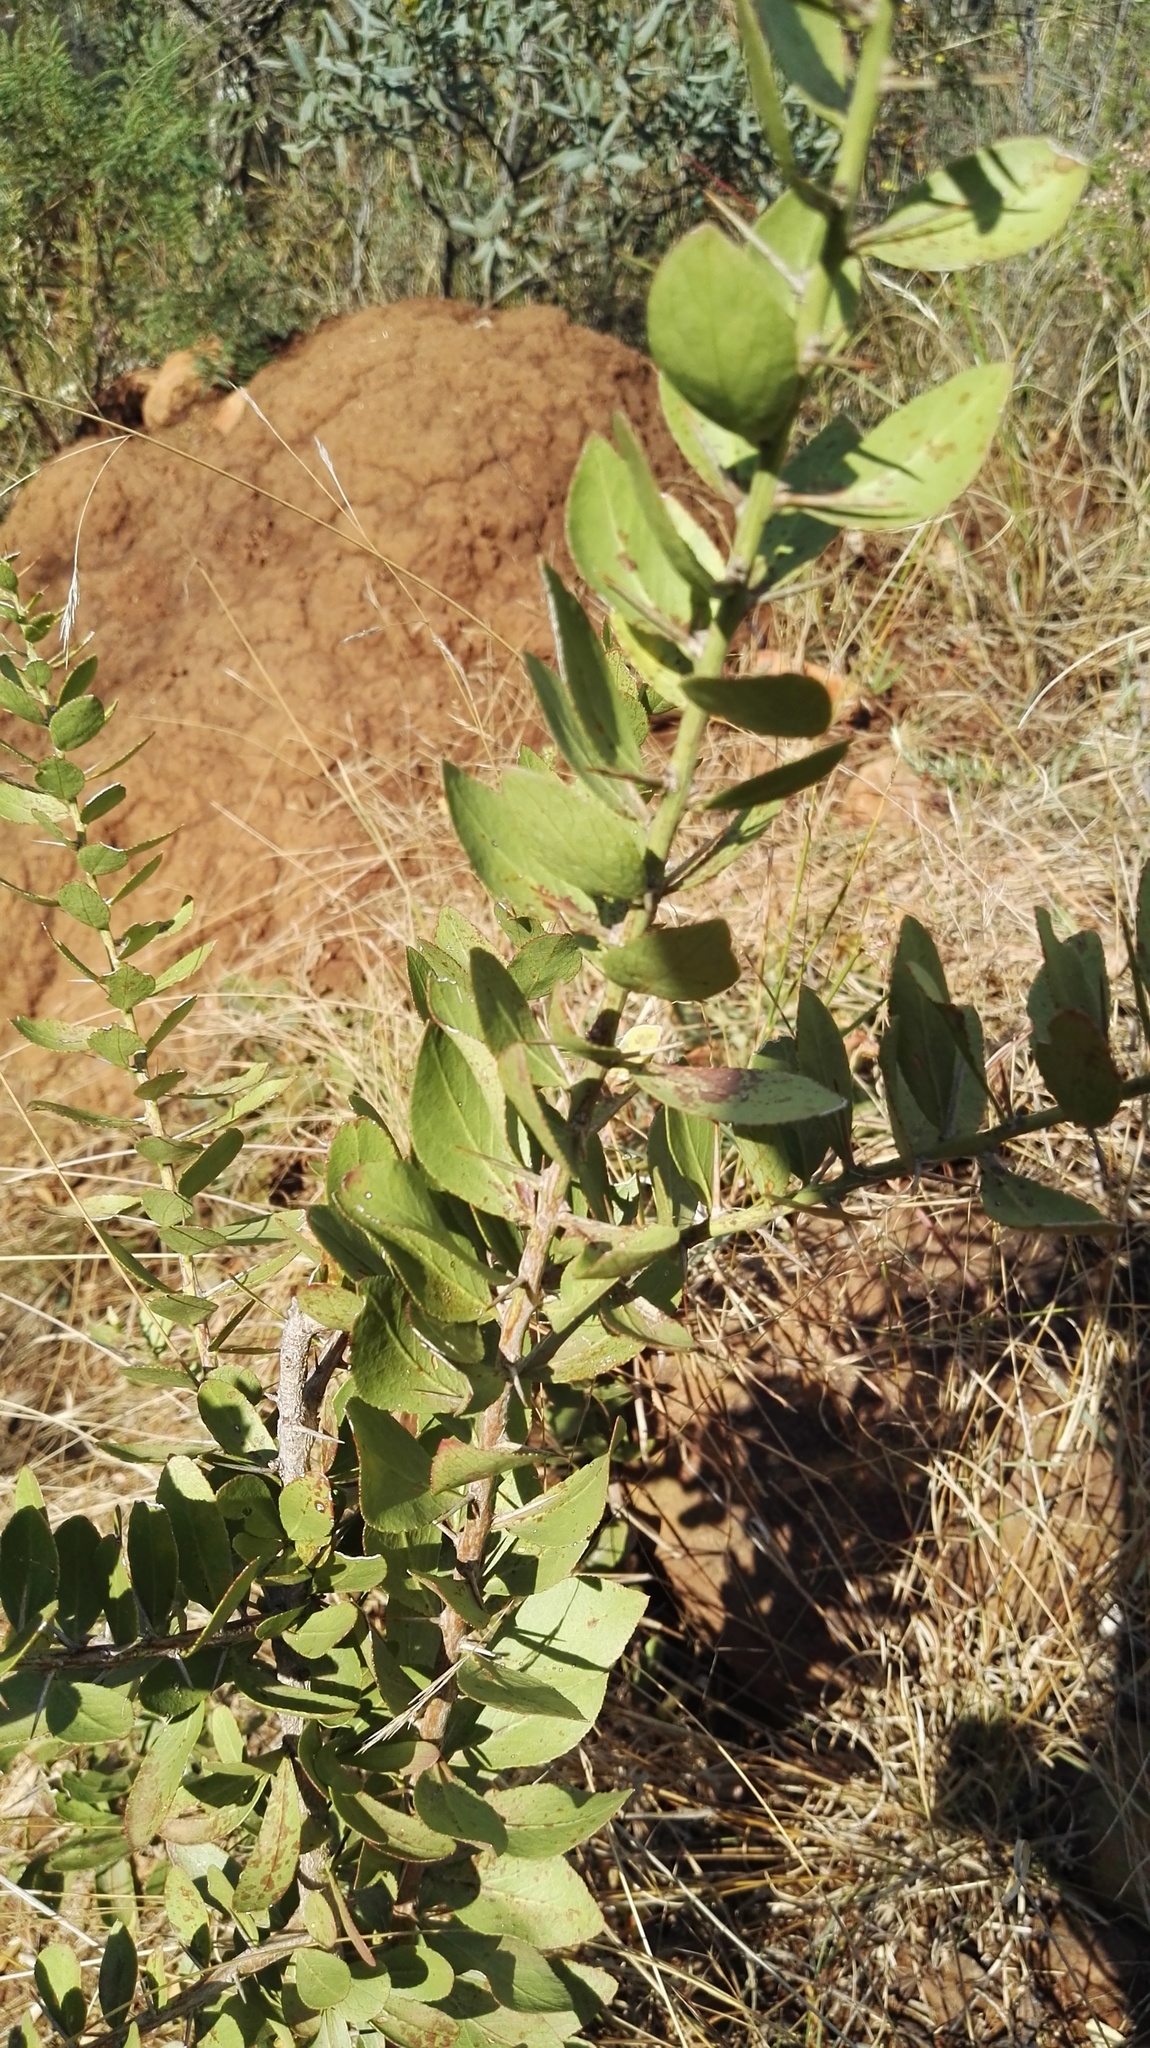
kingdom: Plantae
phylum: Tracheophyta
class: Magnoliopsida
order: Celastrales
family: Celastraceae
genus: Gymnosporia
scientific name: Gymnosporia buxifolia
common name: Common spike-thorn
